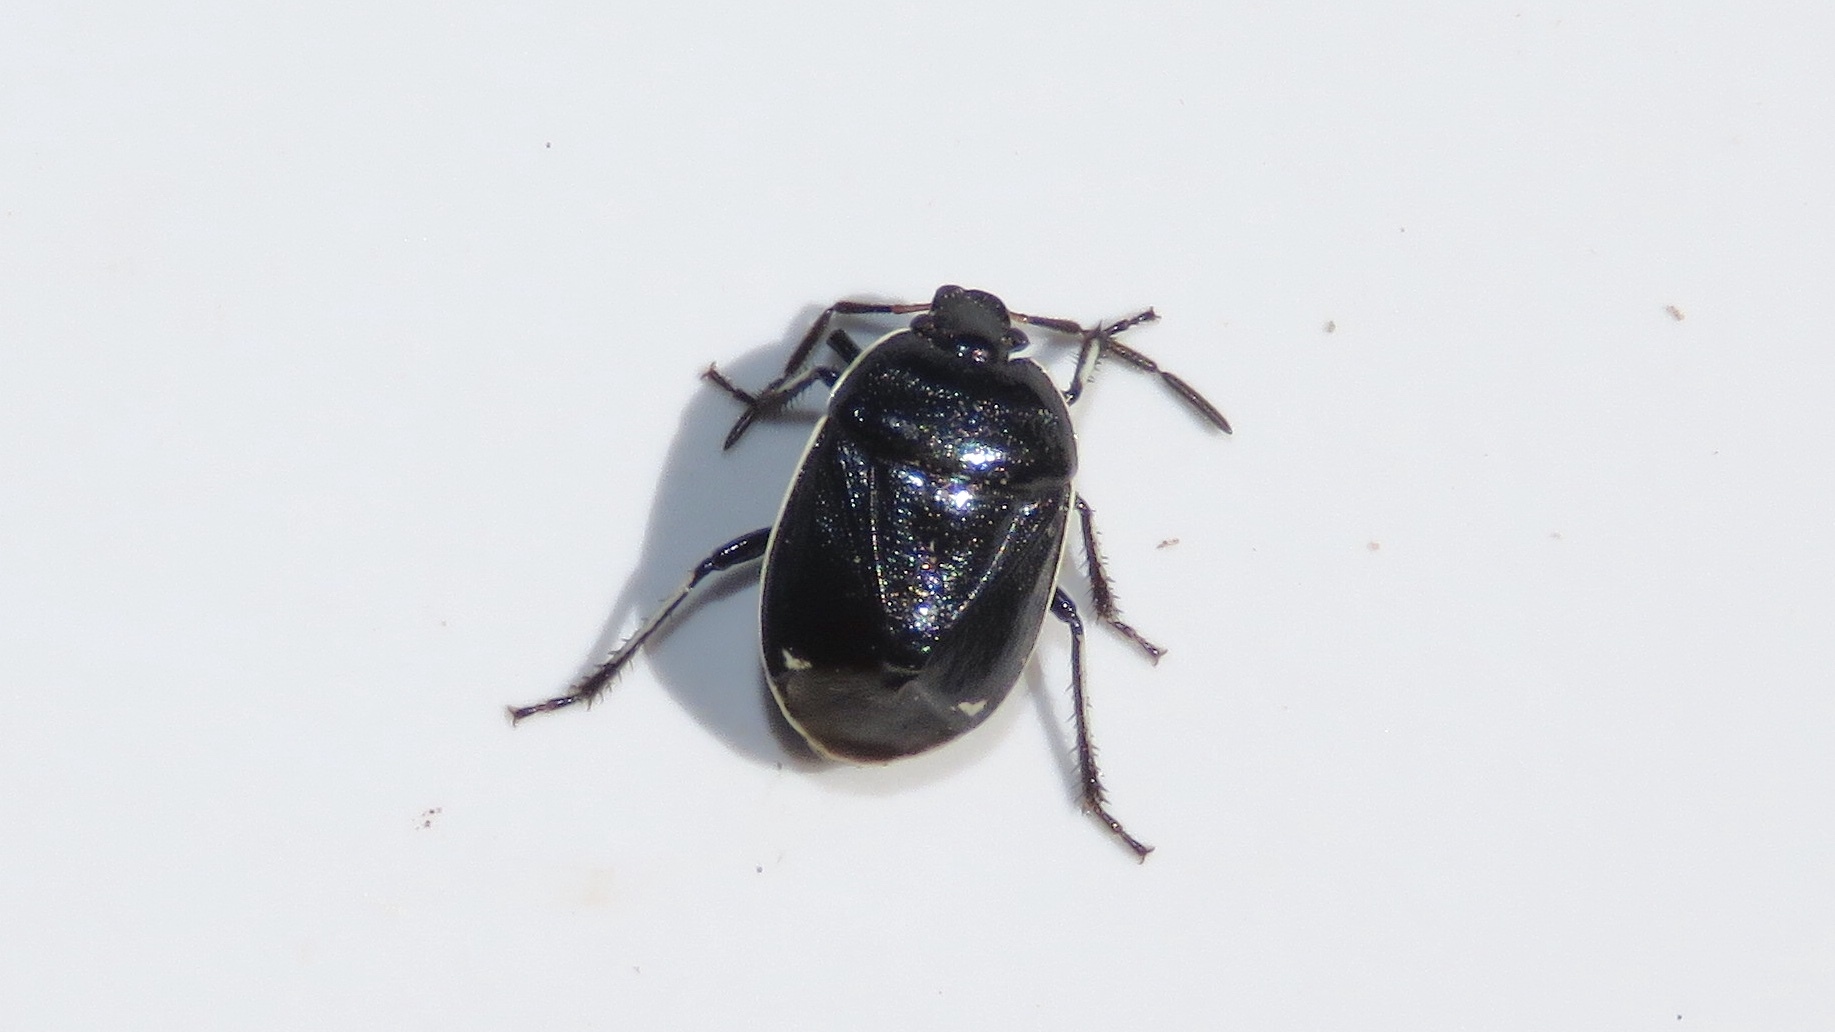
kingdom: Animalia
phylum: Arthropoda
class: Insecta
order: Hemiptera
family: Cydnidae
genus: Sehirus
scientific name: Sehirus cinctus
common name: White-margined burrower bug
